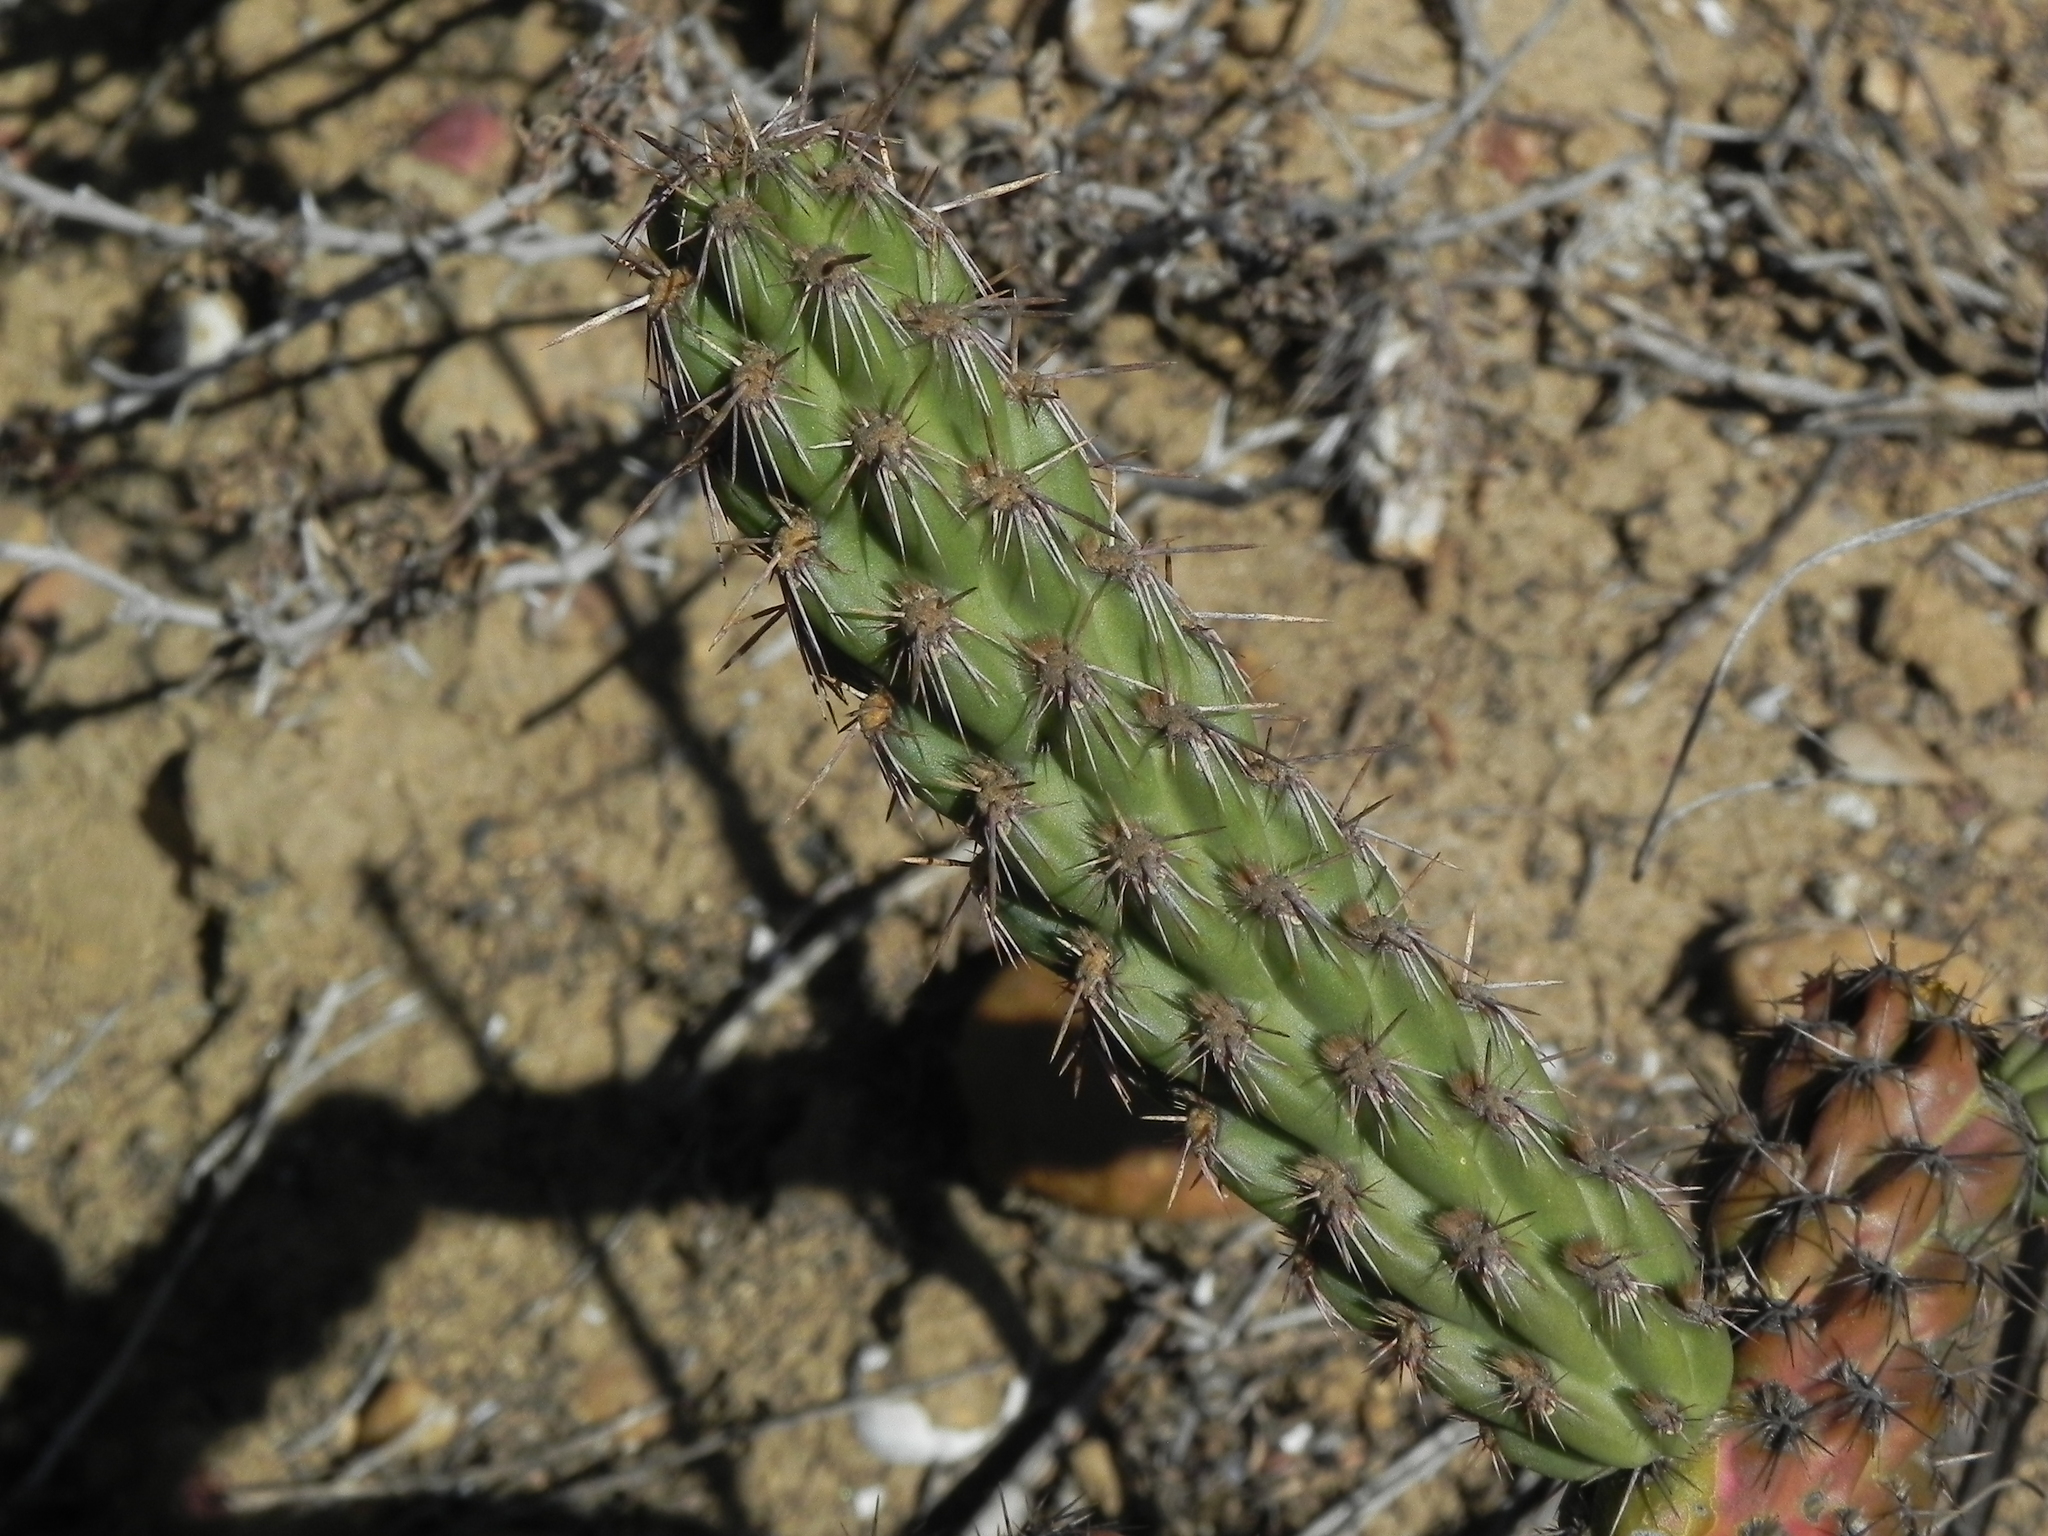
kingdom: Plantae
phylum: Tracheophyta
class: Magnoliopsida
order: Caryophyllales
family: Cactaceae
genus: Cylindropuntia
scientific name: Cylindropuntia californica
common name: Snake cholla
